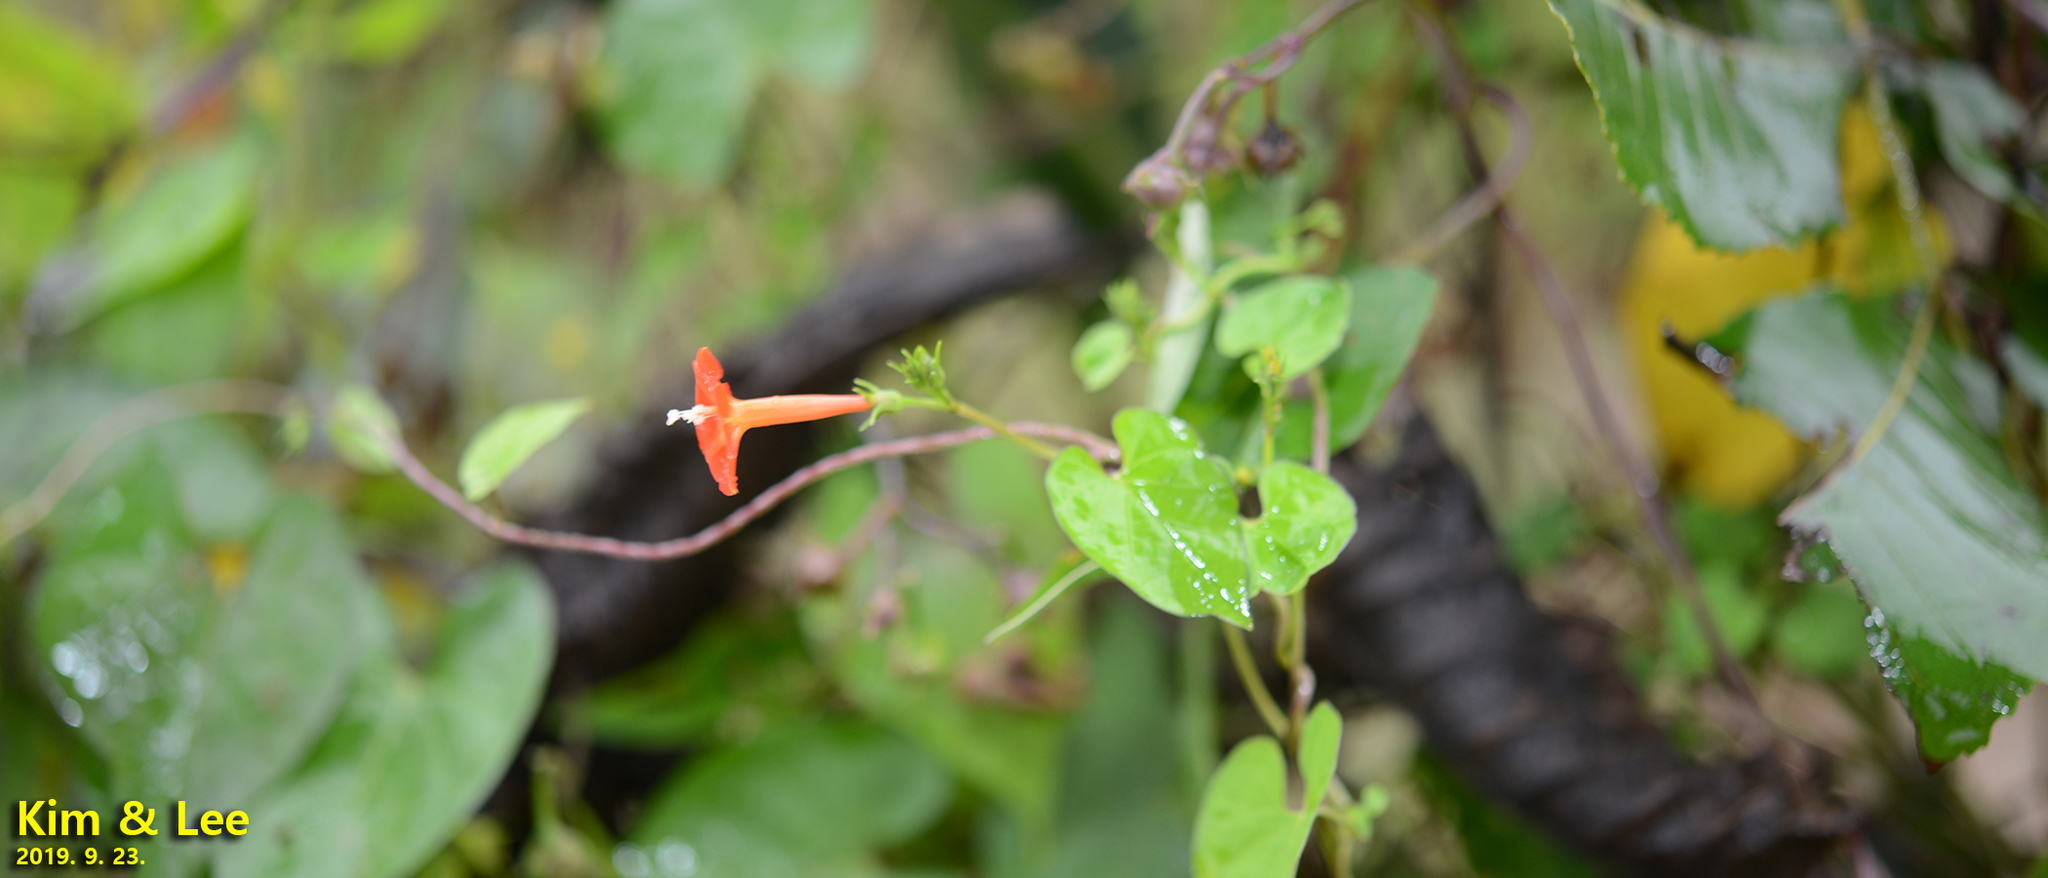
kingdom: Plantae
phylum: Tracheophyta
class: Magnoliopsida
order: Solanales
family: Convolvulaceae
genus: Ipomoea
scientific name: Ipomoea coccinea
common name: Red morning-glory
